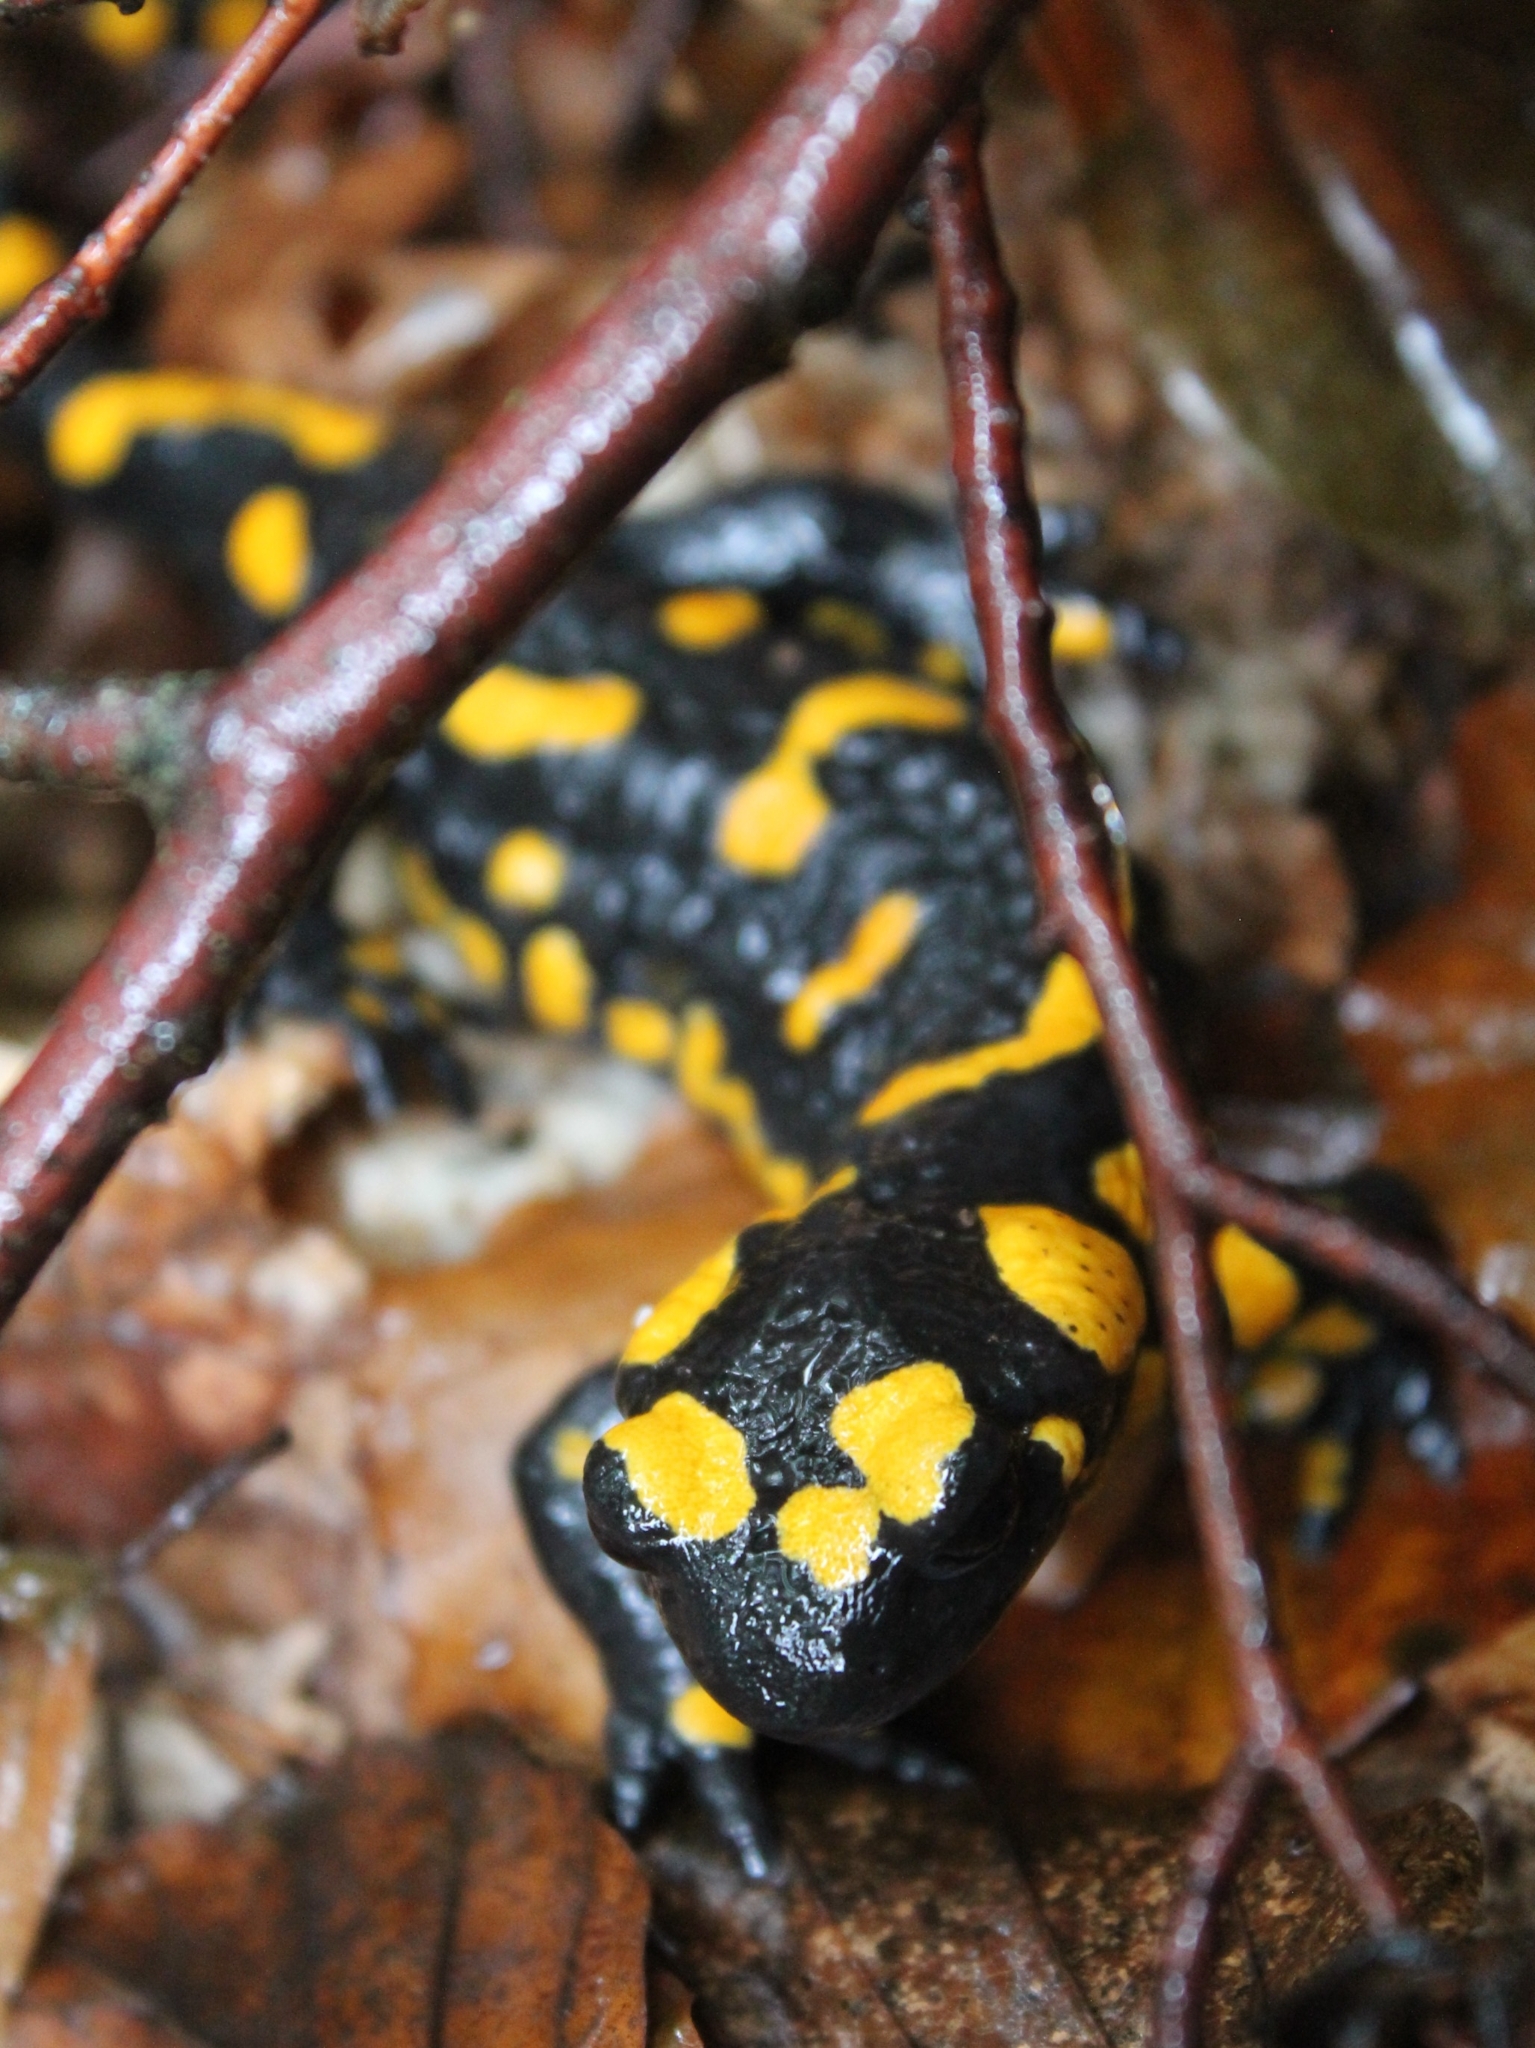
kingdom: Animalia
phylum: Chordata
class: Amphibia
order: Caudata
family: Salamandridae
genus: Salamandra
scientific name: Salamandra salamandra
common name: Fire salamander
